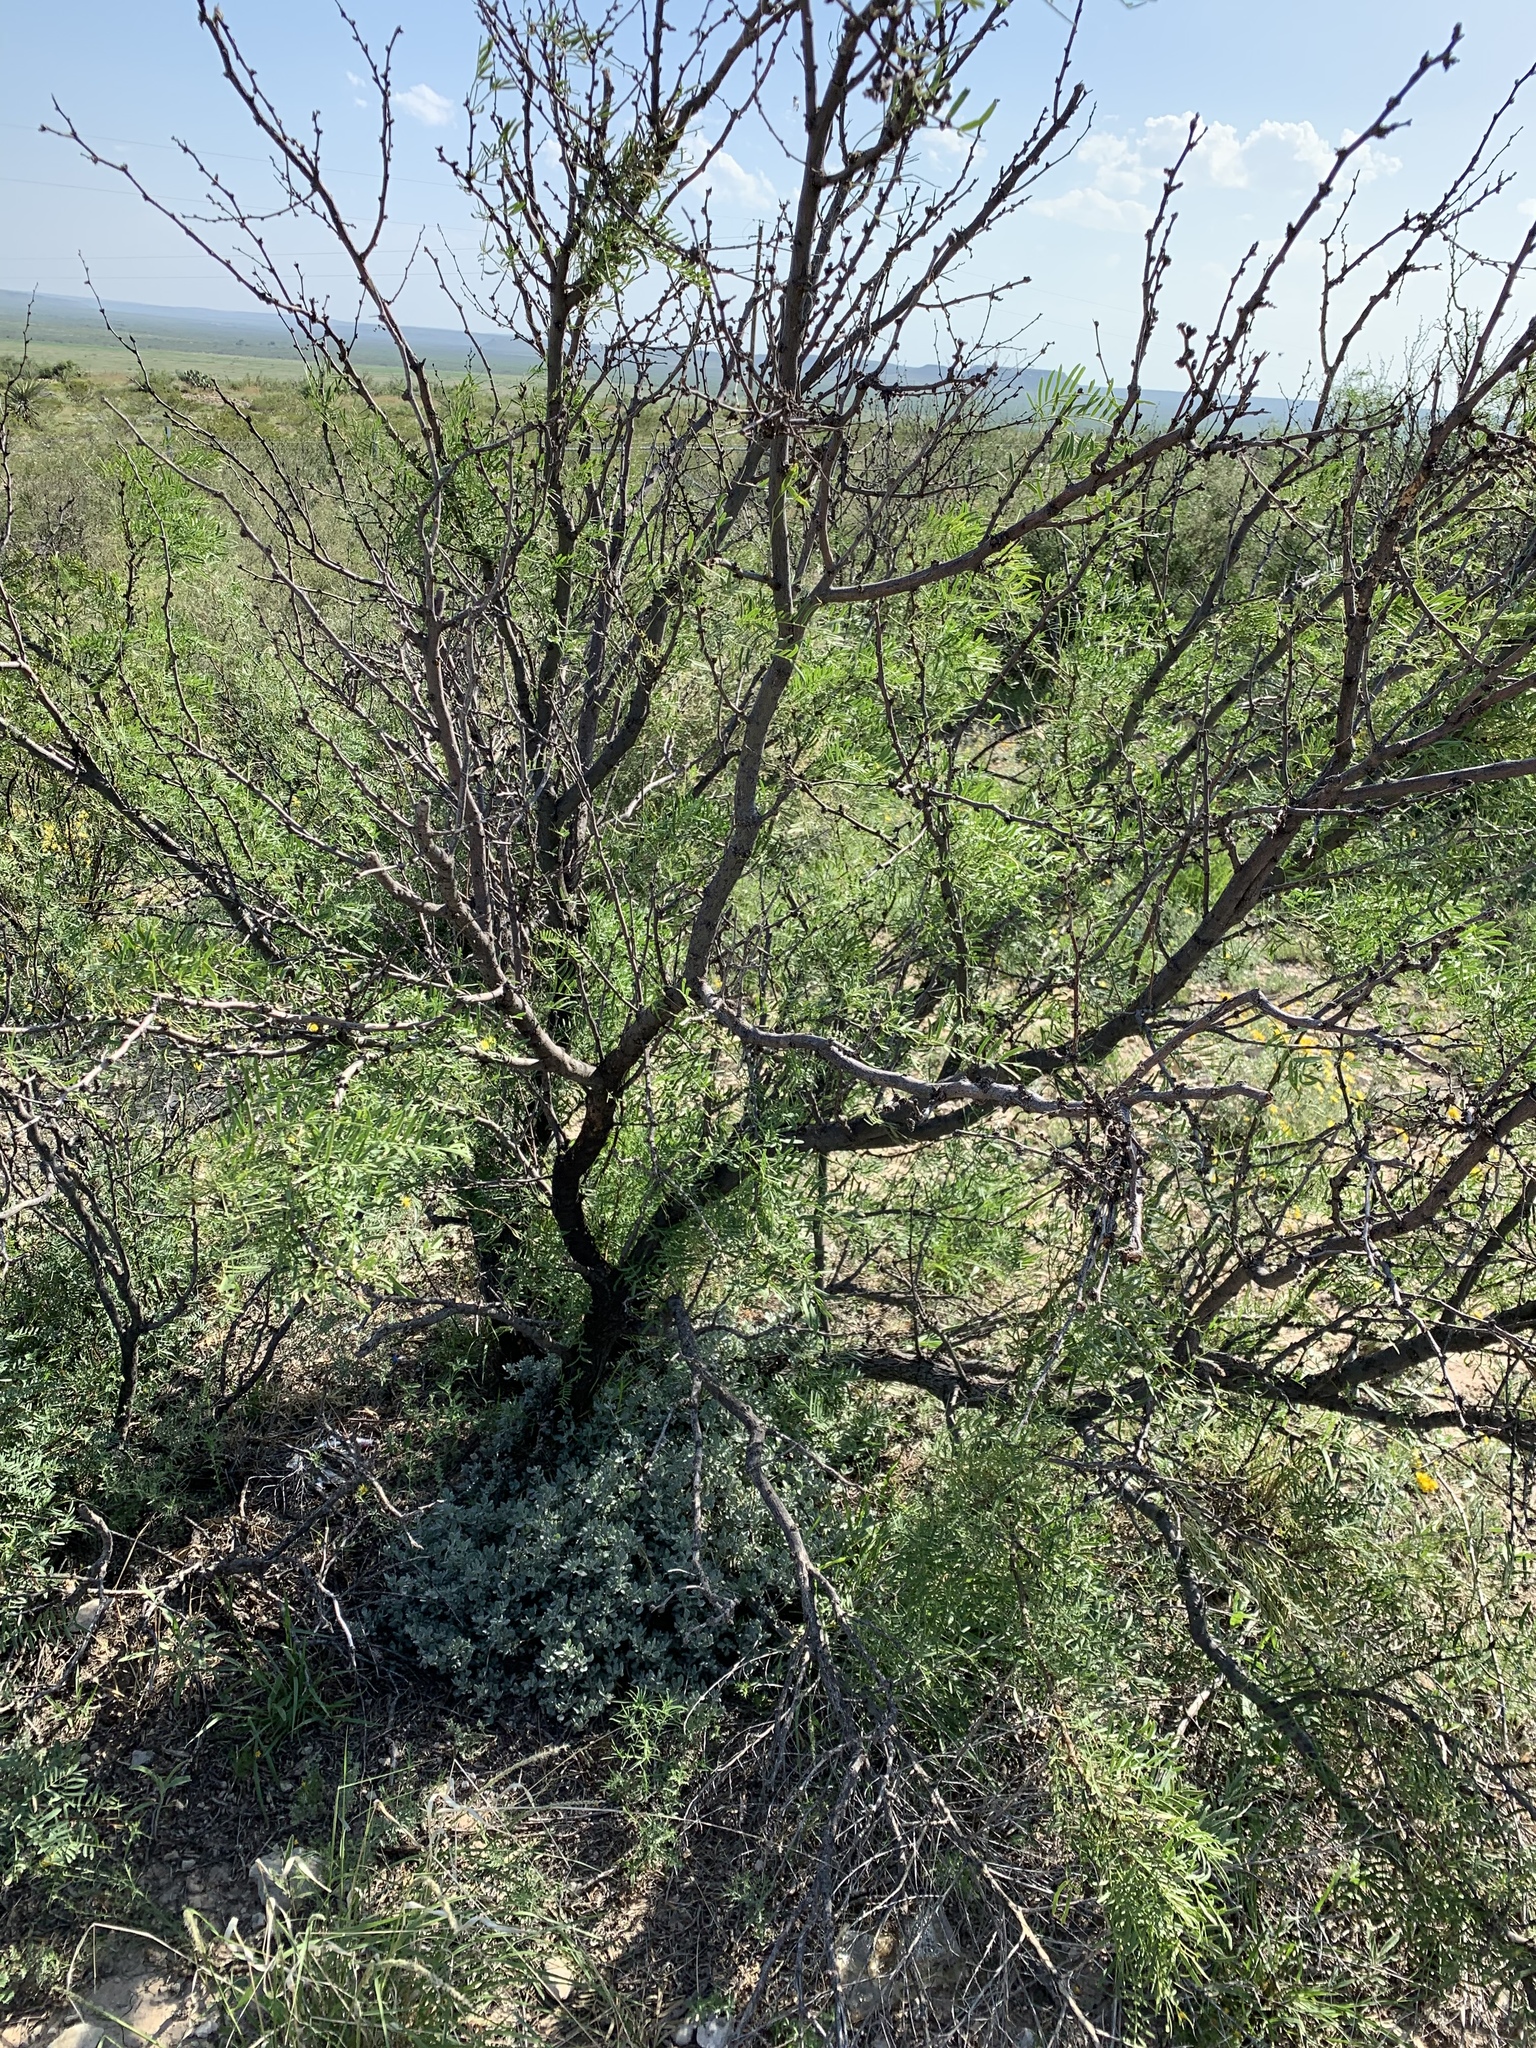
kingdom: Plantae
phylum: Tracheophyta
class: Magnoliopsida
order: Fabales
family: Fabaceae
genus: Prosopis
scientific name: Prosopis glandulosa
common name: Honey mesquite
